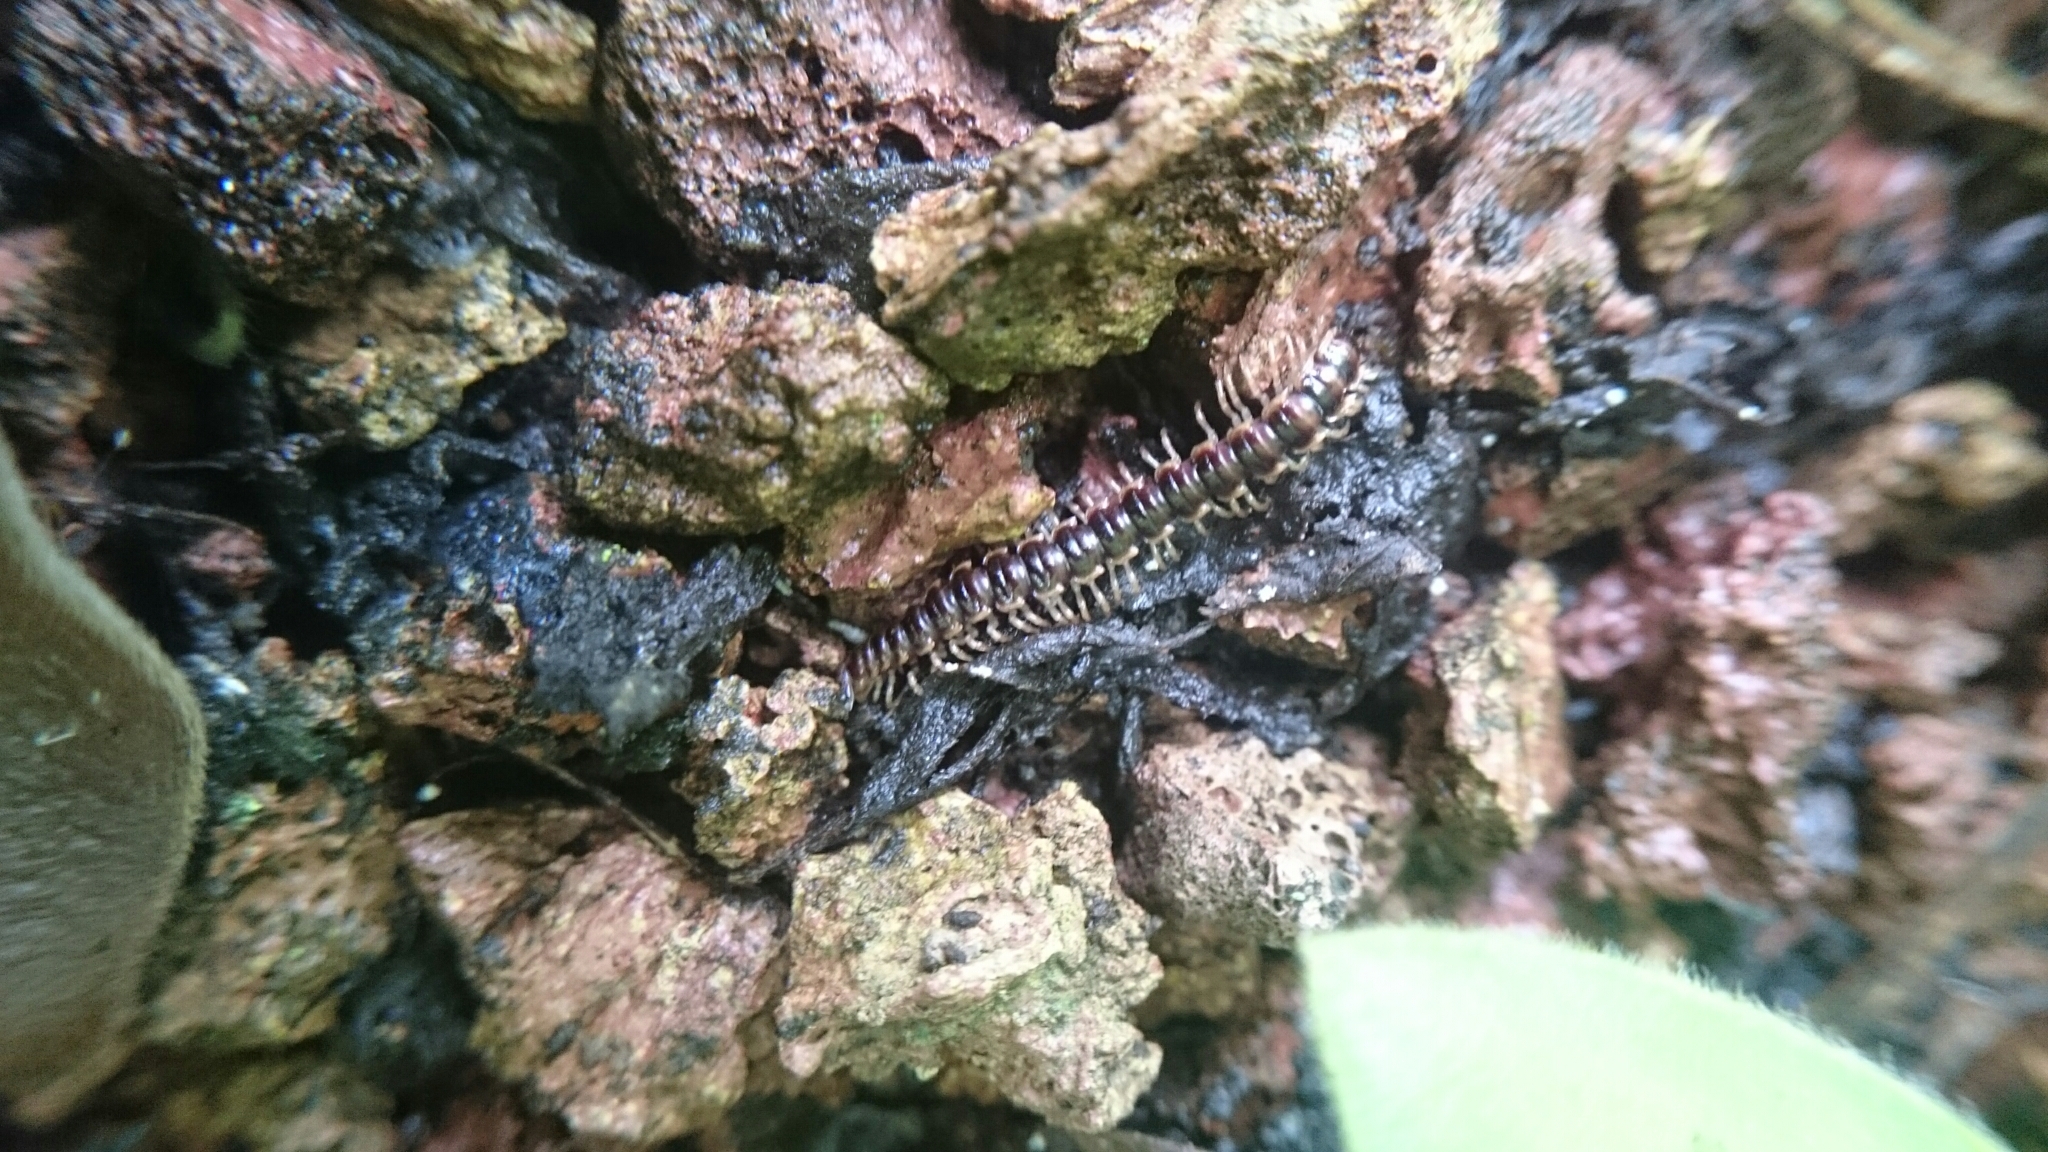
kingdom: Animalia
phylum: Arthropoda
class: Diplopoda
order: Polydesmida
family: Paradoxosomatidae
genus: Oxidus
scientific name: Oxidus gracilis
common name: Greenhouse millipede
